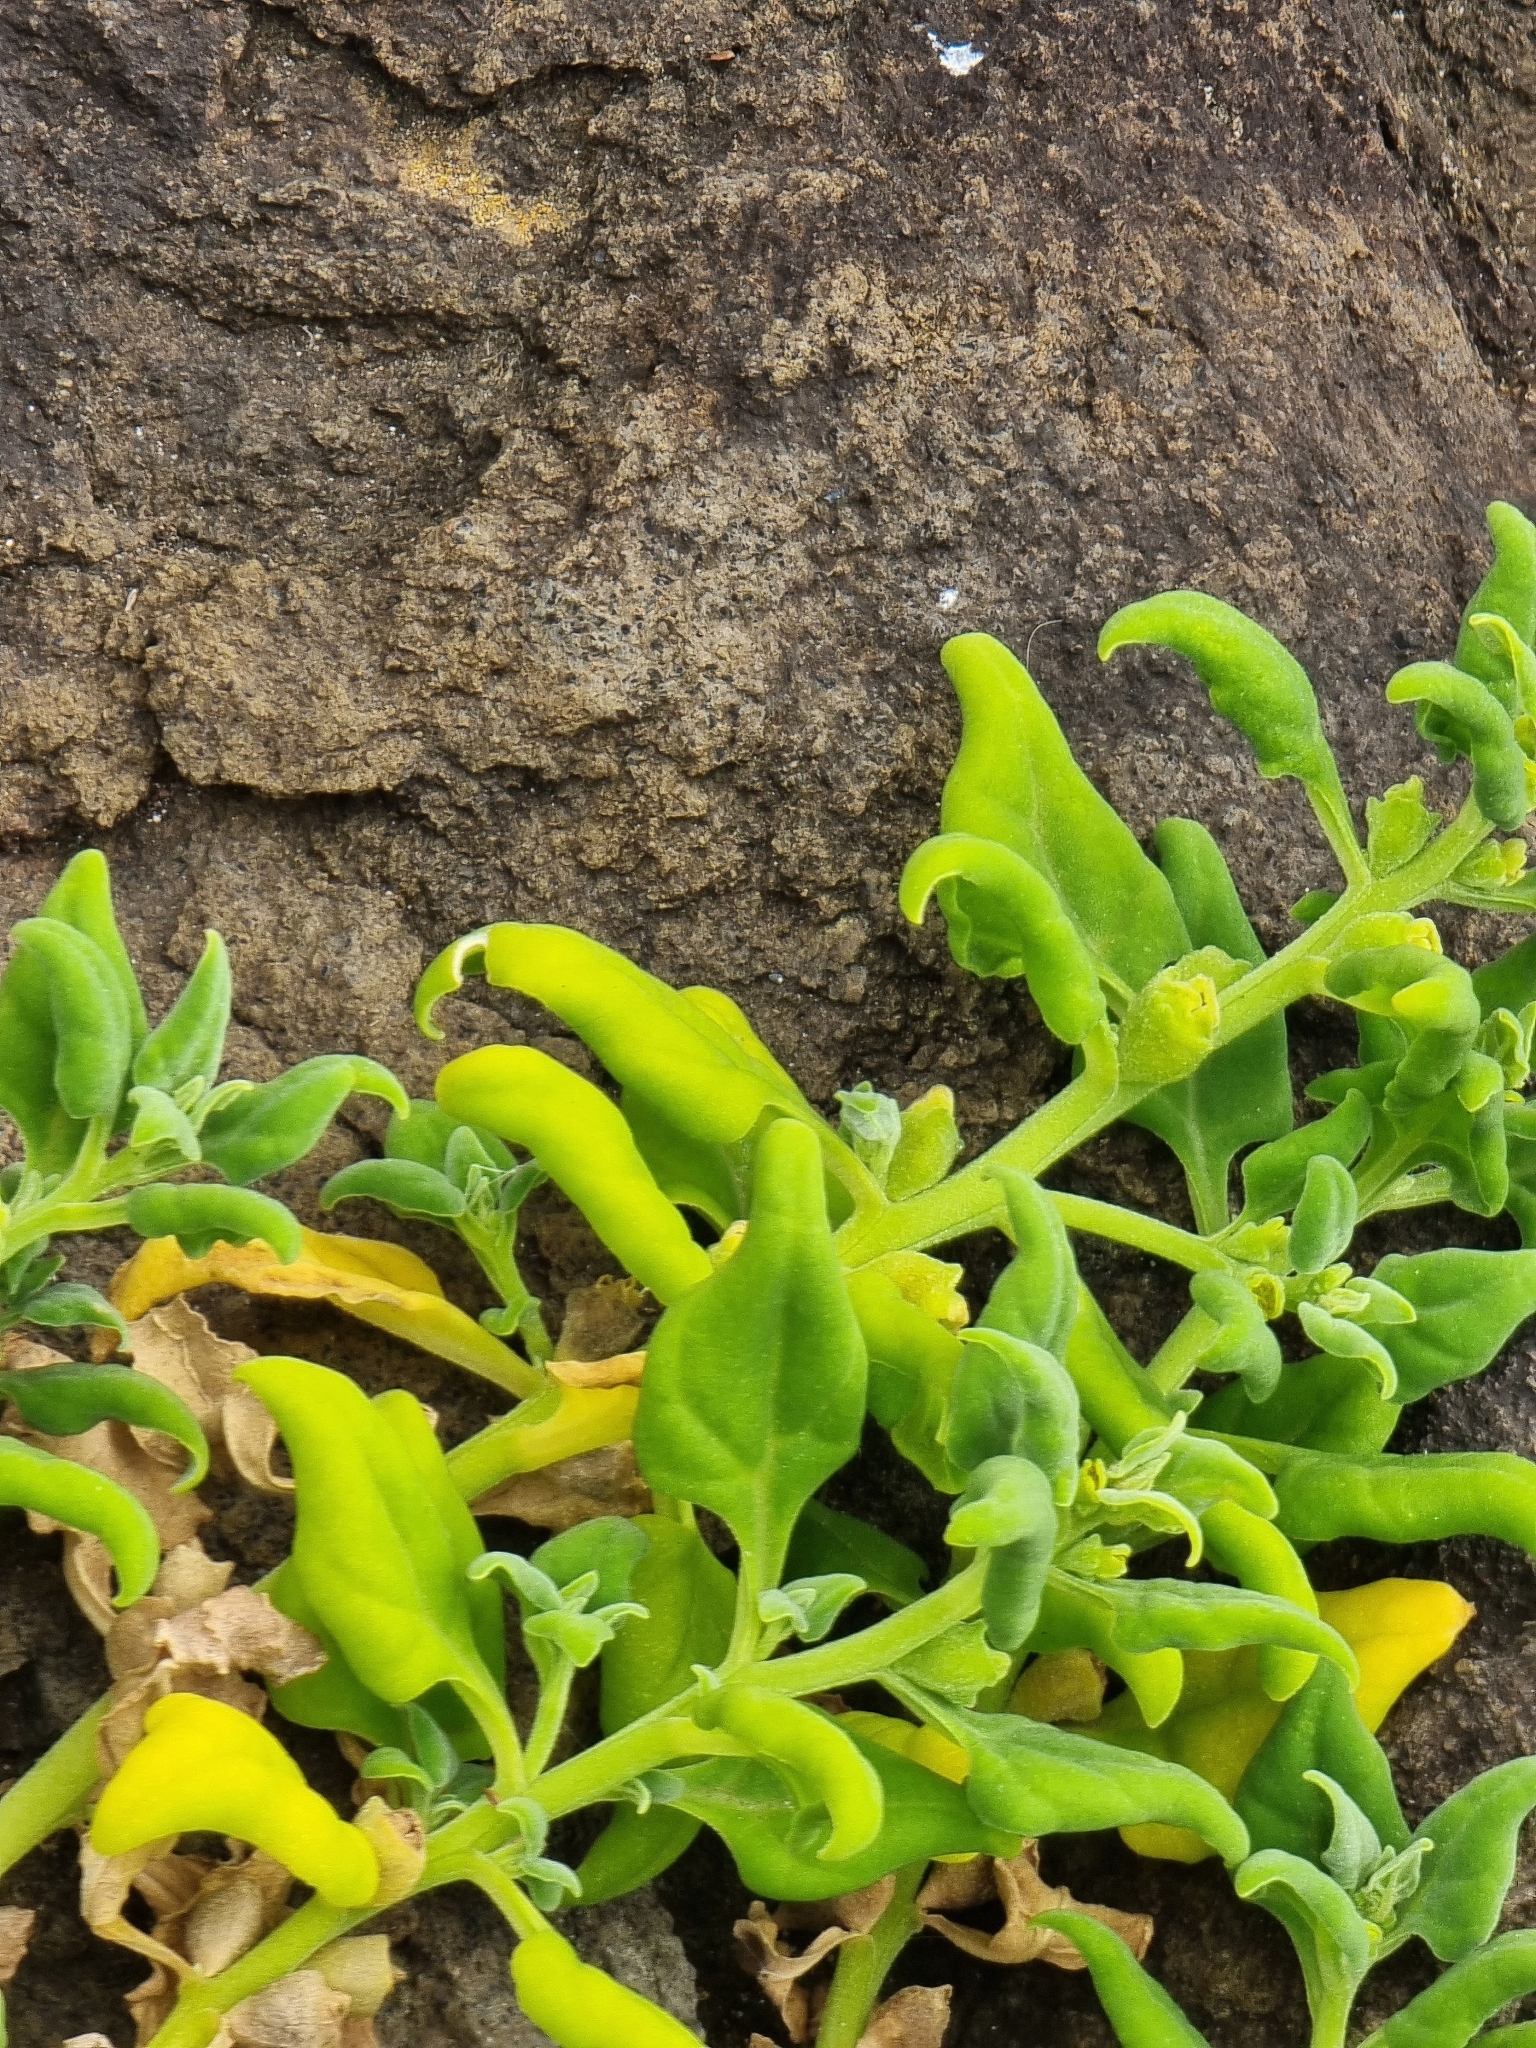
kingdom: Plantae
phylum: Tracheophyta
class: Magnoliopsida
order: Caryophyllales
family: Aizoaceae
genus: Tetragonia
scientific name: Tetragonia tetragonoides
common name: New zealand-spinach
